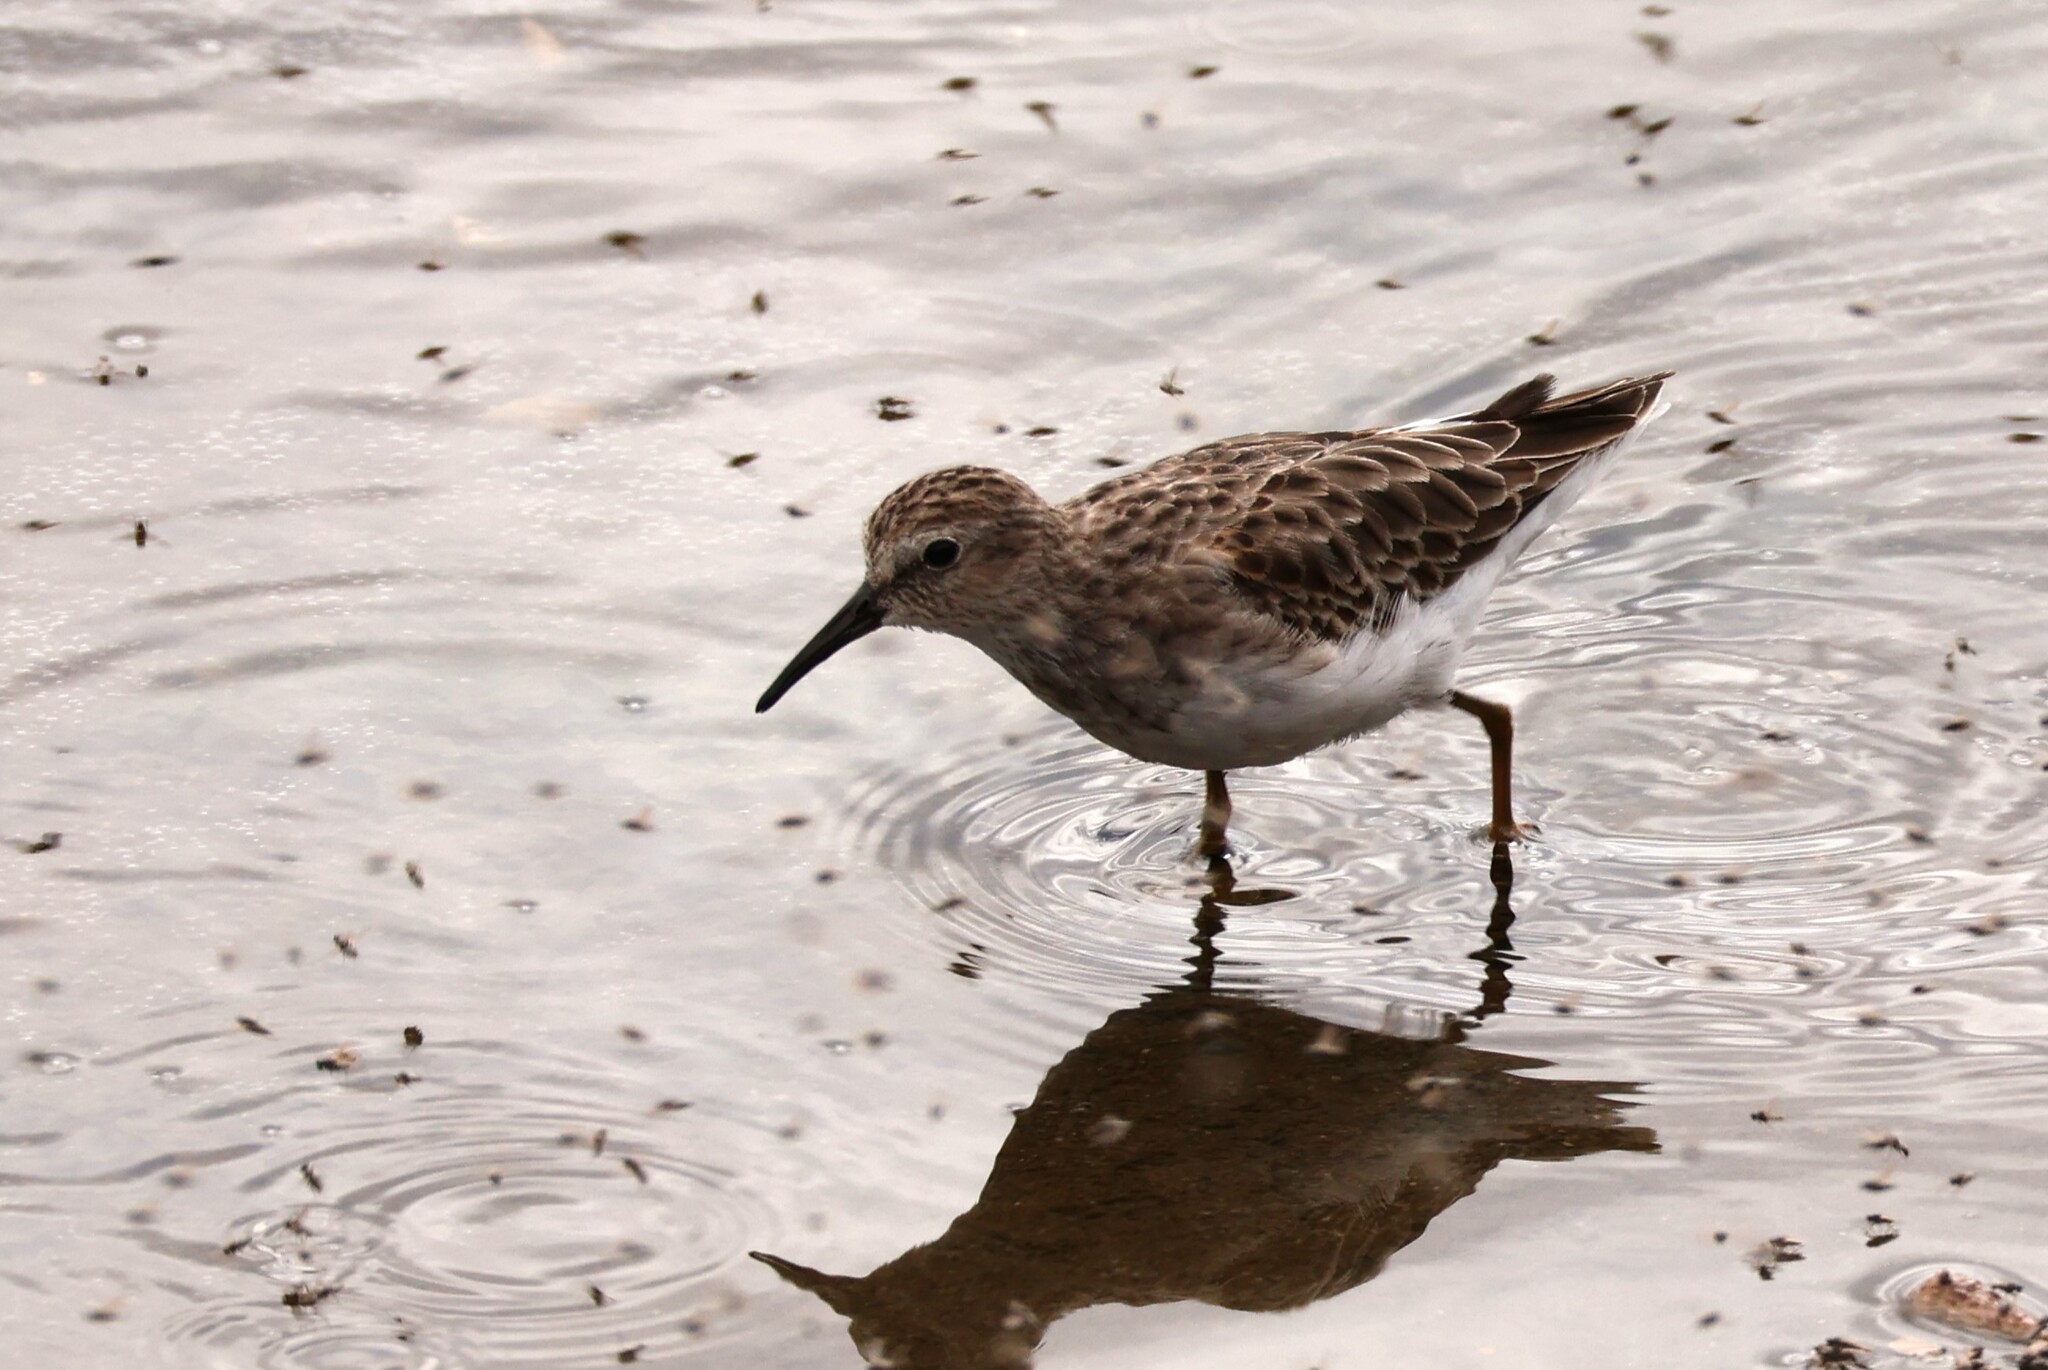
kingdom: Animalia
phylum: Chordata
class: Aves
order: Charadriiformes
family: Scolopacidae
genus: Calidris
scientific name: Calidris minutilla
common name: Least sandpiper
